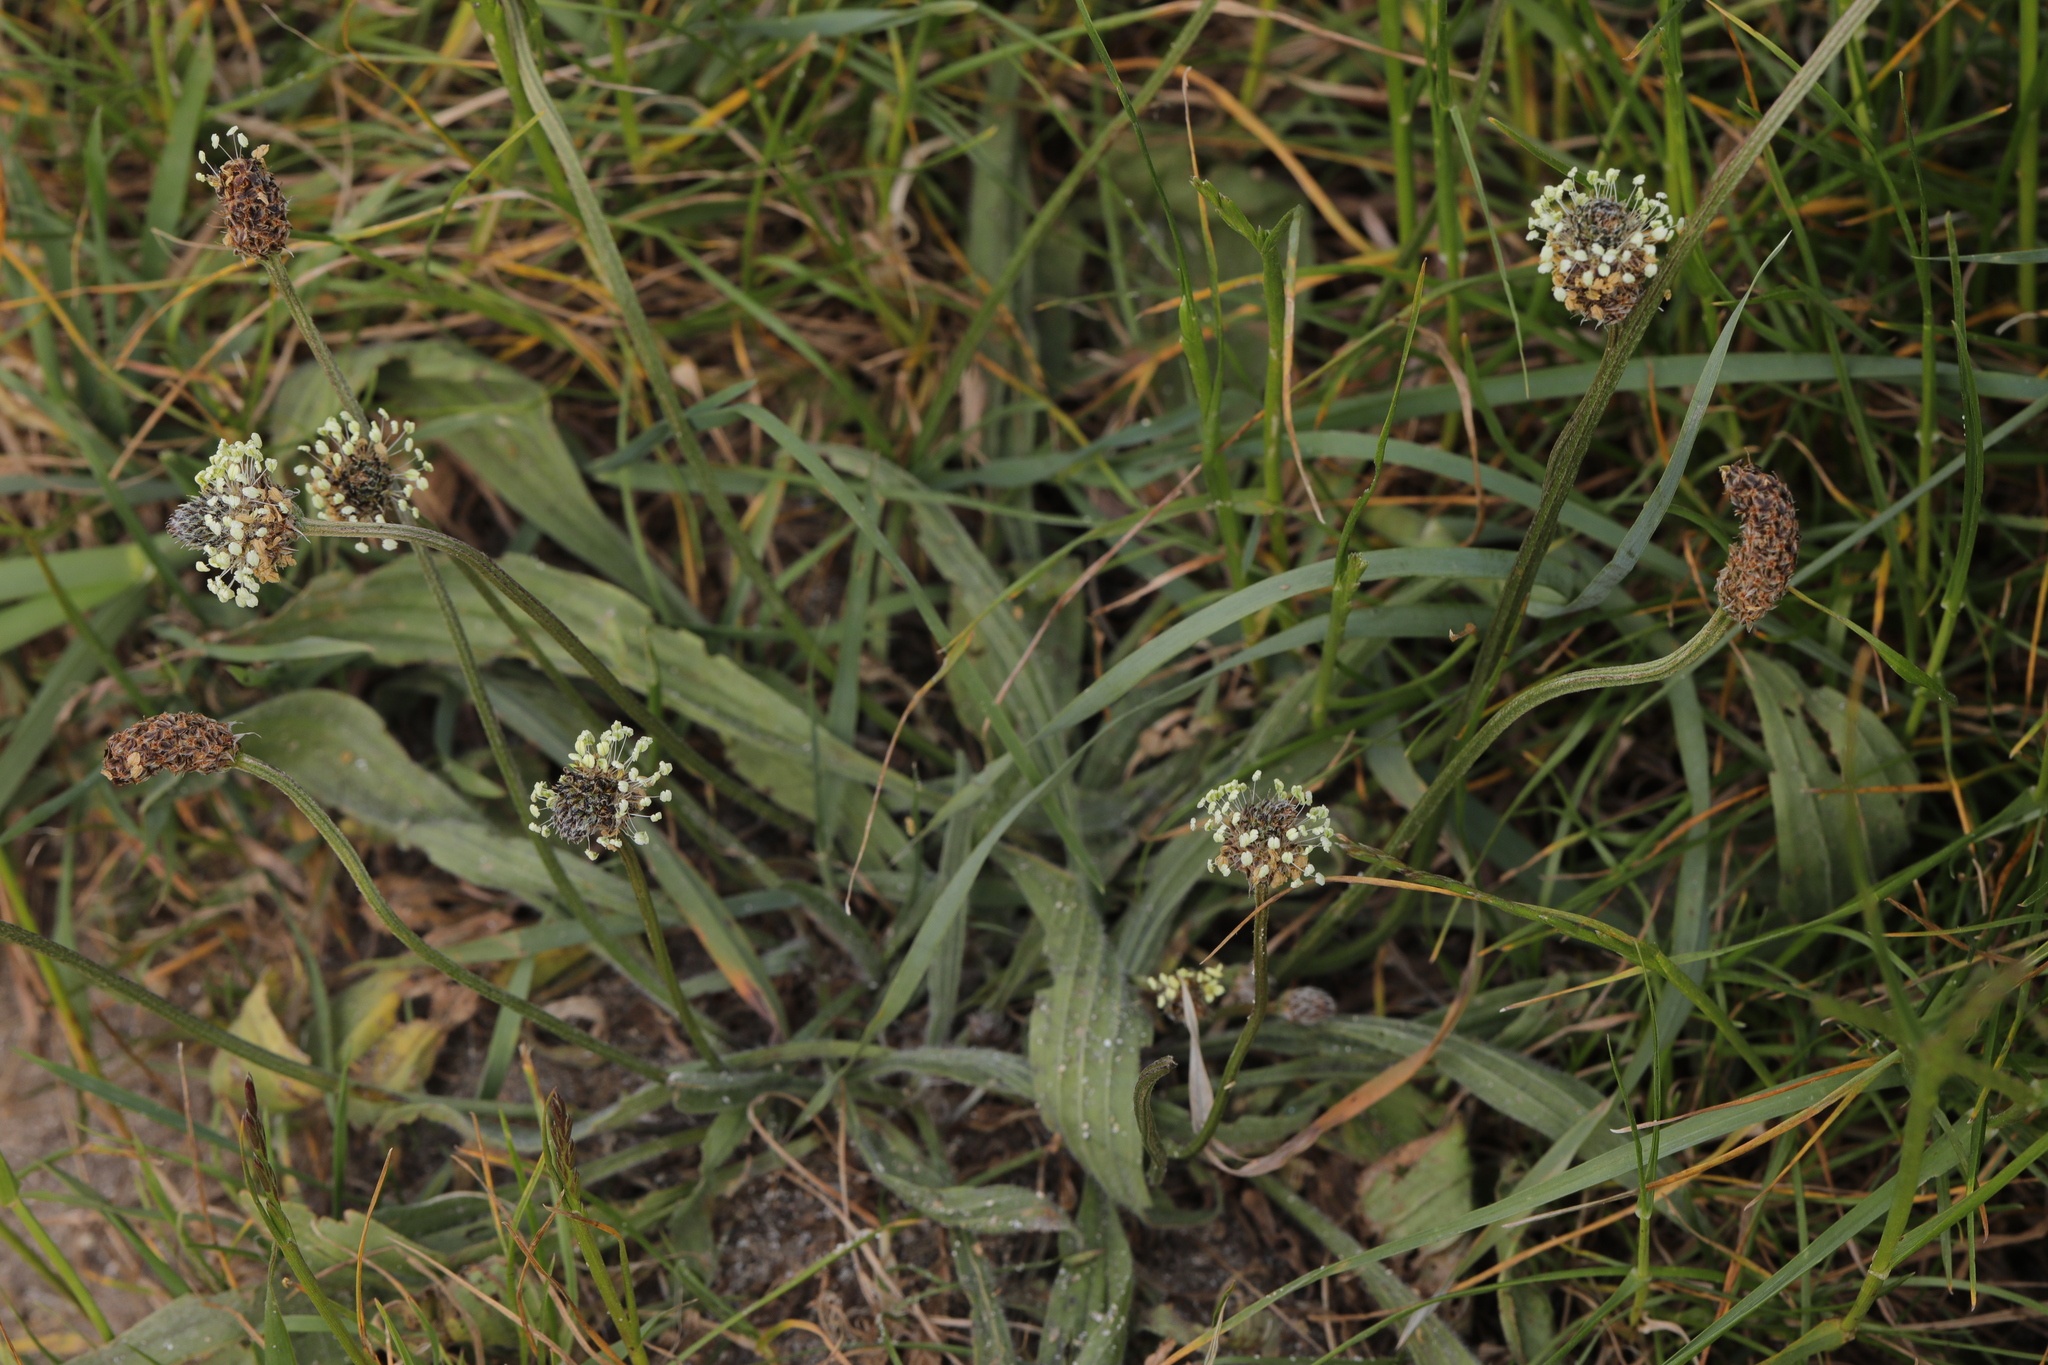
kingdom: Plantae
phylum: Tracheophyta
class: Magnoliopsida
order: Lamiales
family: Plantaginaceae
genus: Plantago
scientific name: Plantago lanceolata
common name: Ribwort plantain
